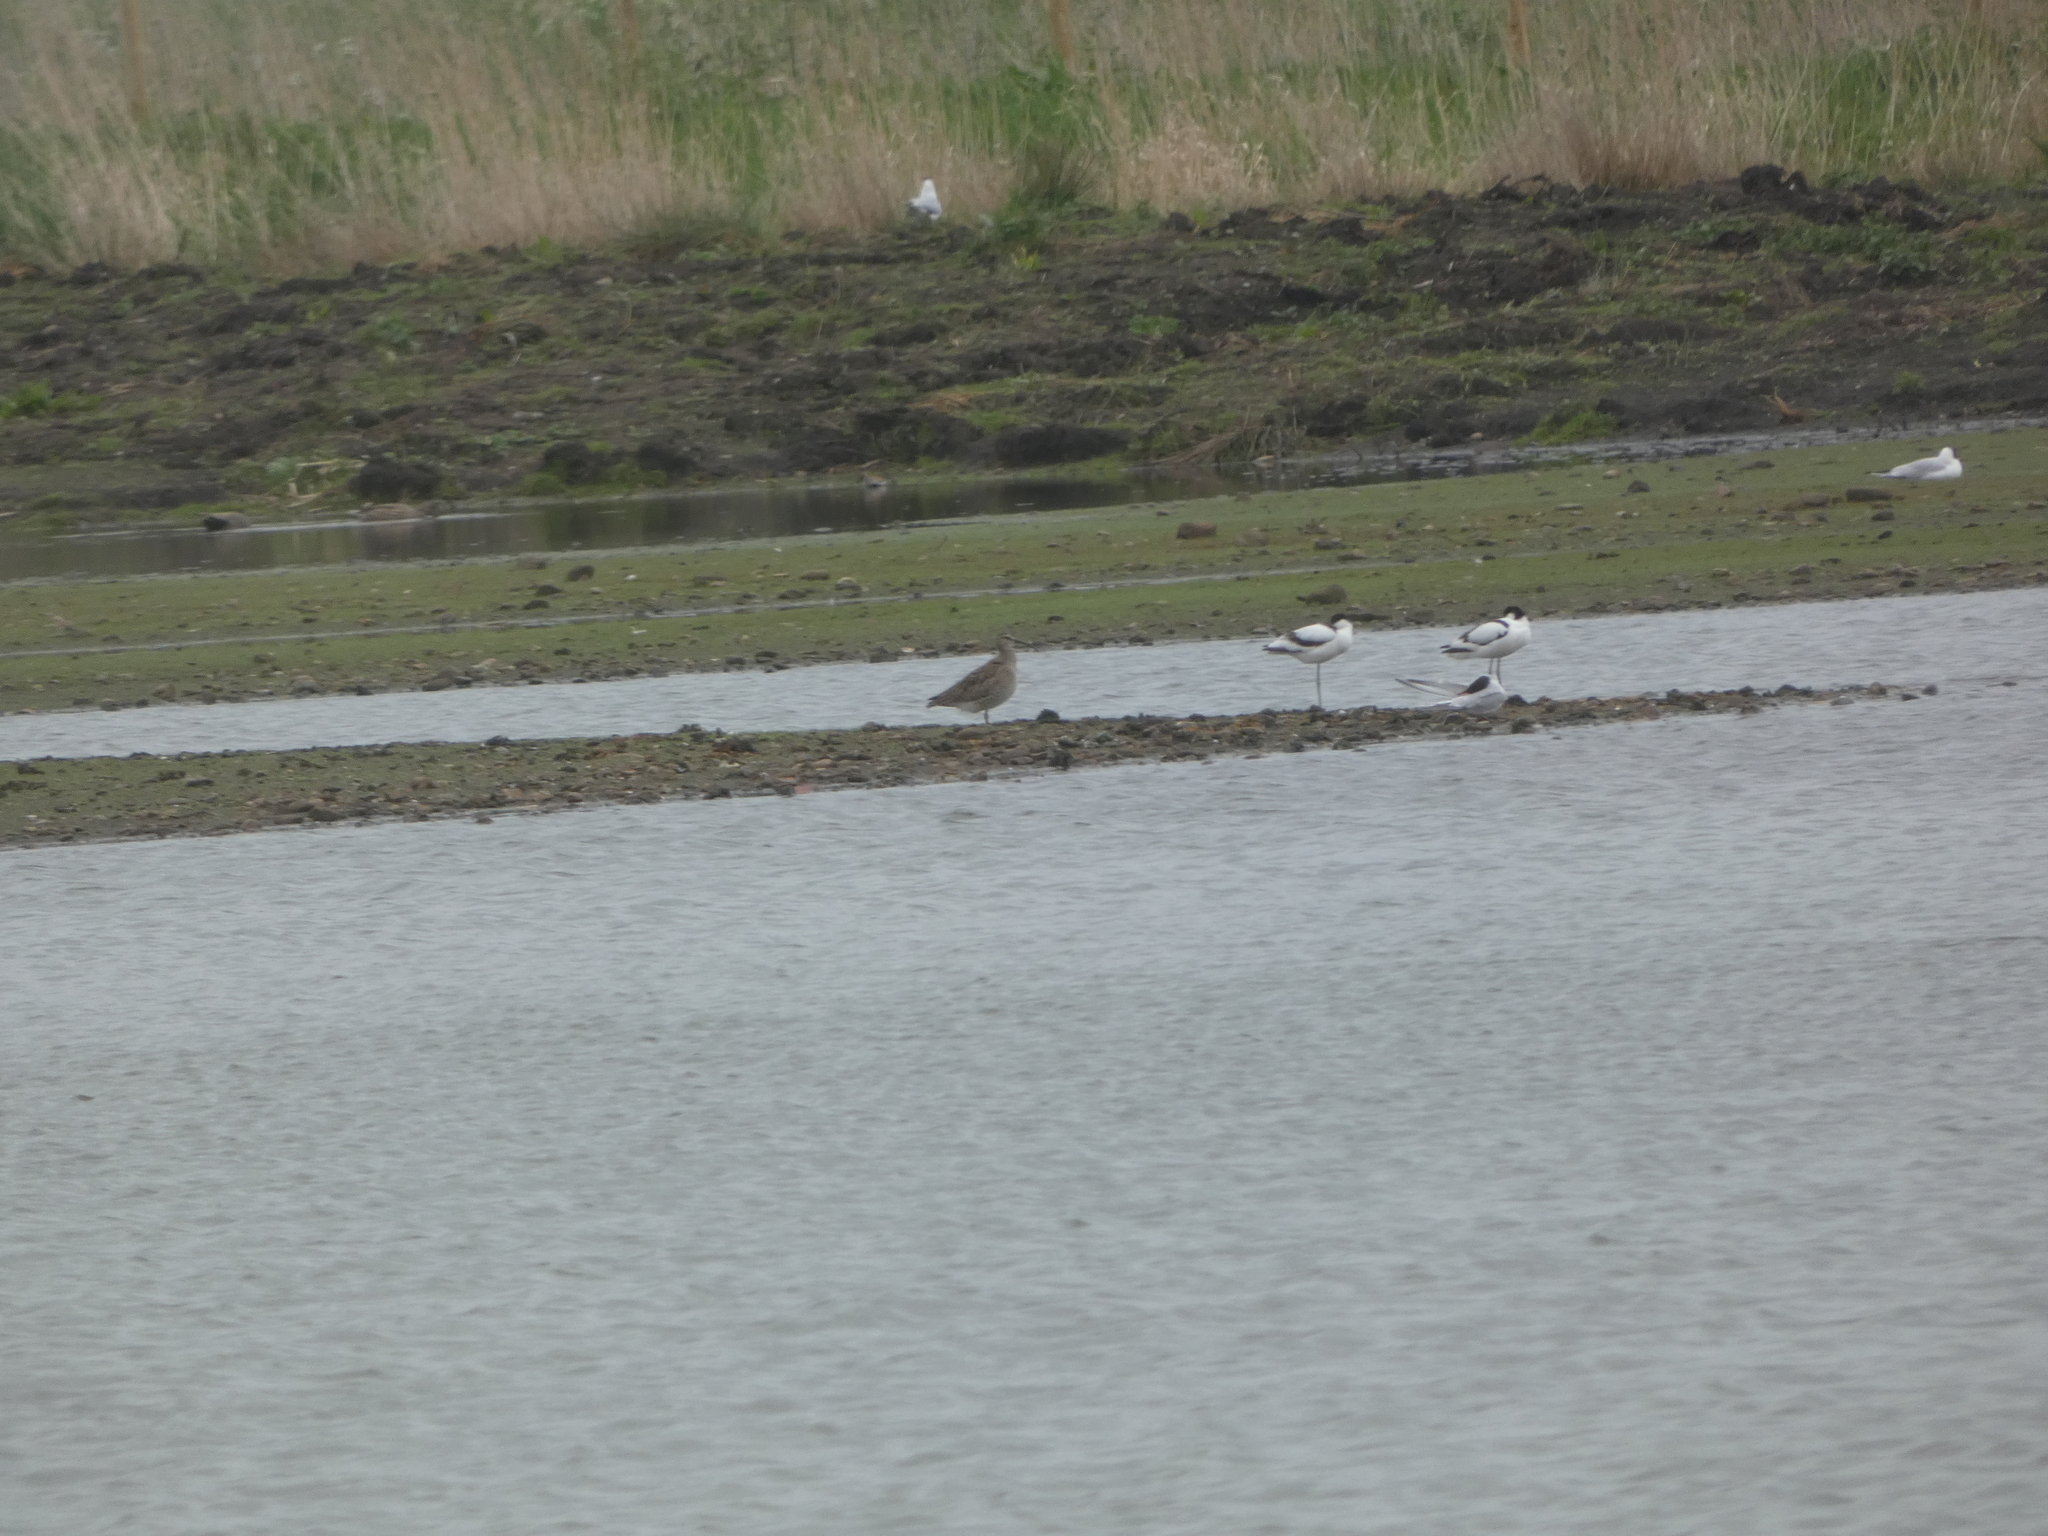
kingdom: Animalia
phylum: Chordata
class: Aves
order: Charadriiformes
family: Scolopacidae
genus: Numenius
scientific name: Numenius phaeopus
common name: Whimbrel
